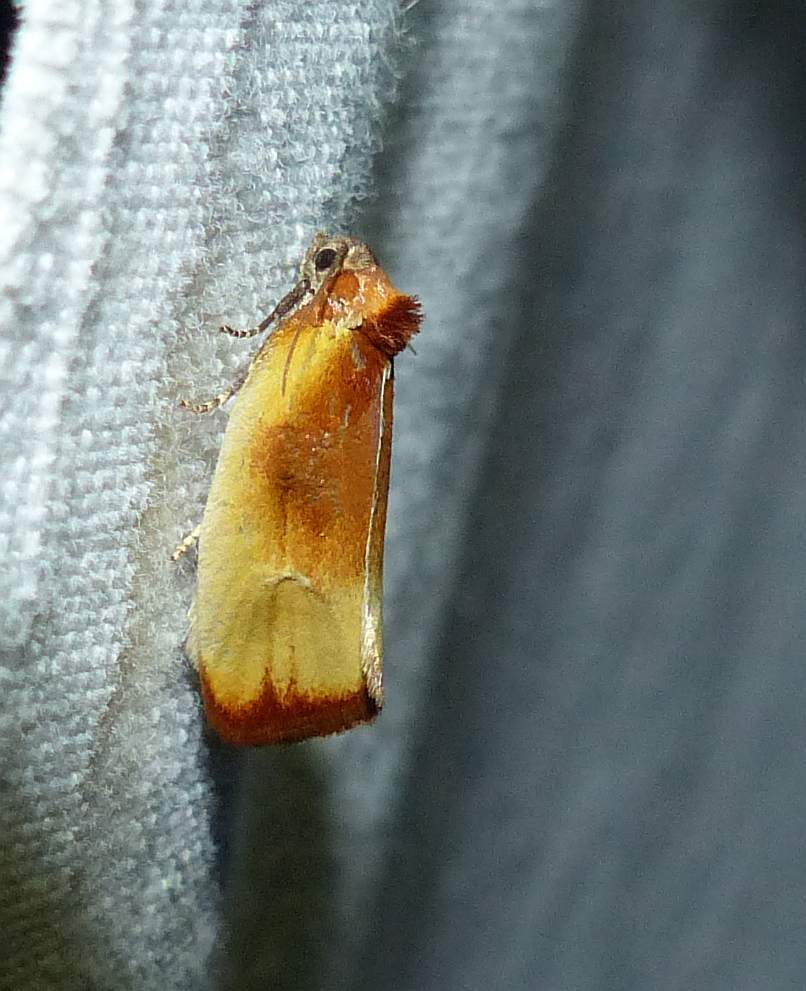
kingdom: Animalia
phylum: Arthropoda
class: Insecta
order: Lepidoptera
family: Tortricidae
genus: Eulia
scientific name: Eulia ministrana
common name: Brassy twist
